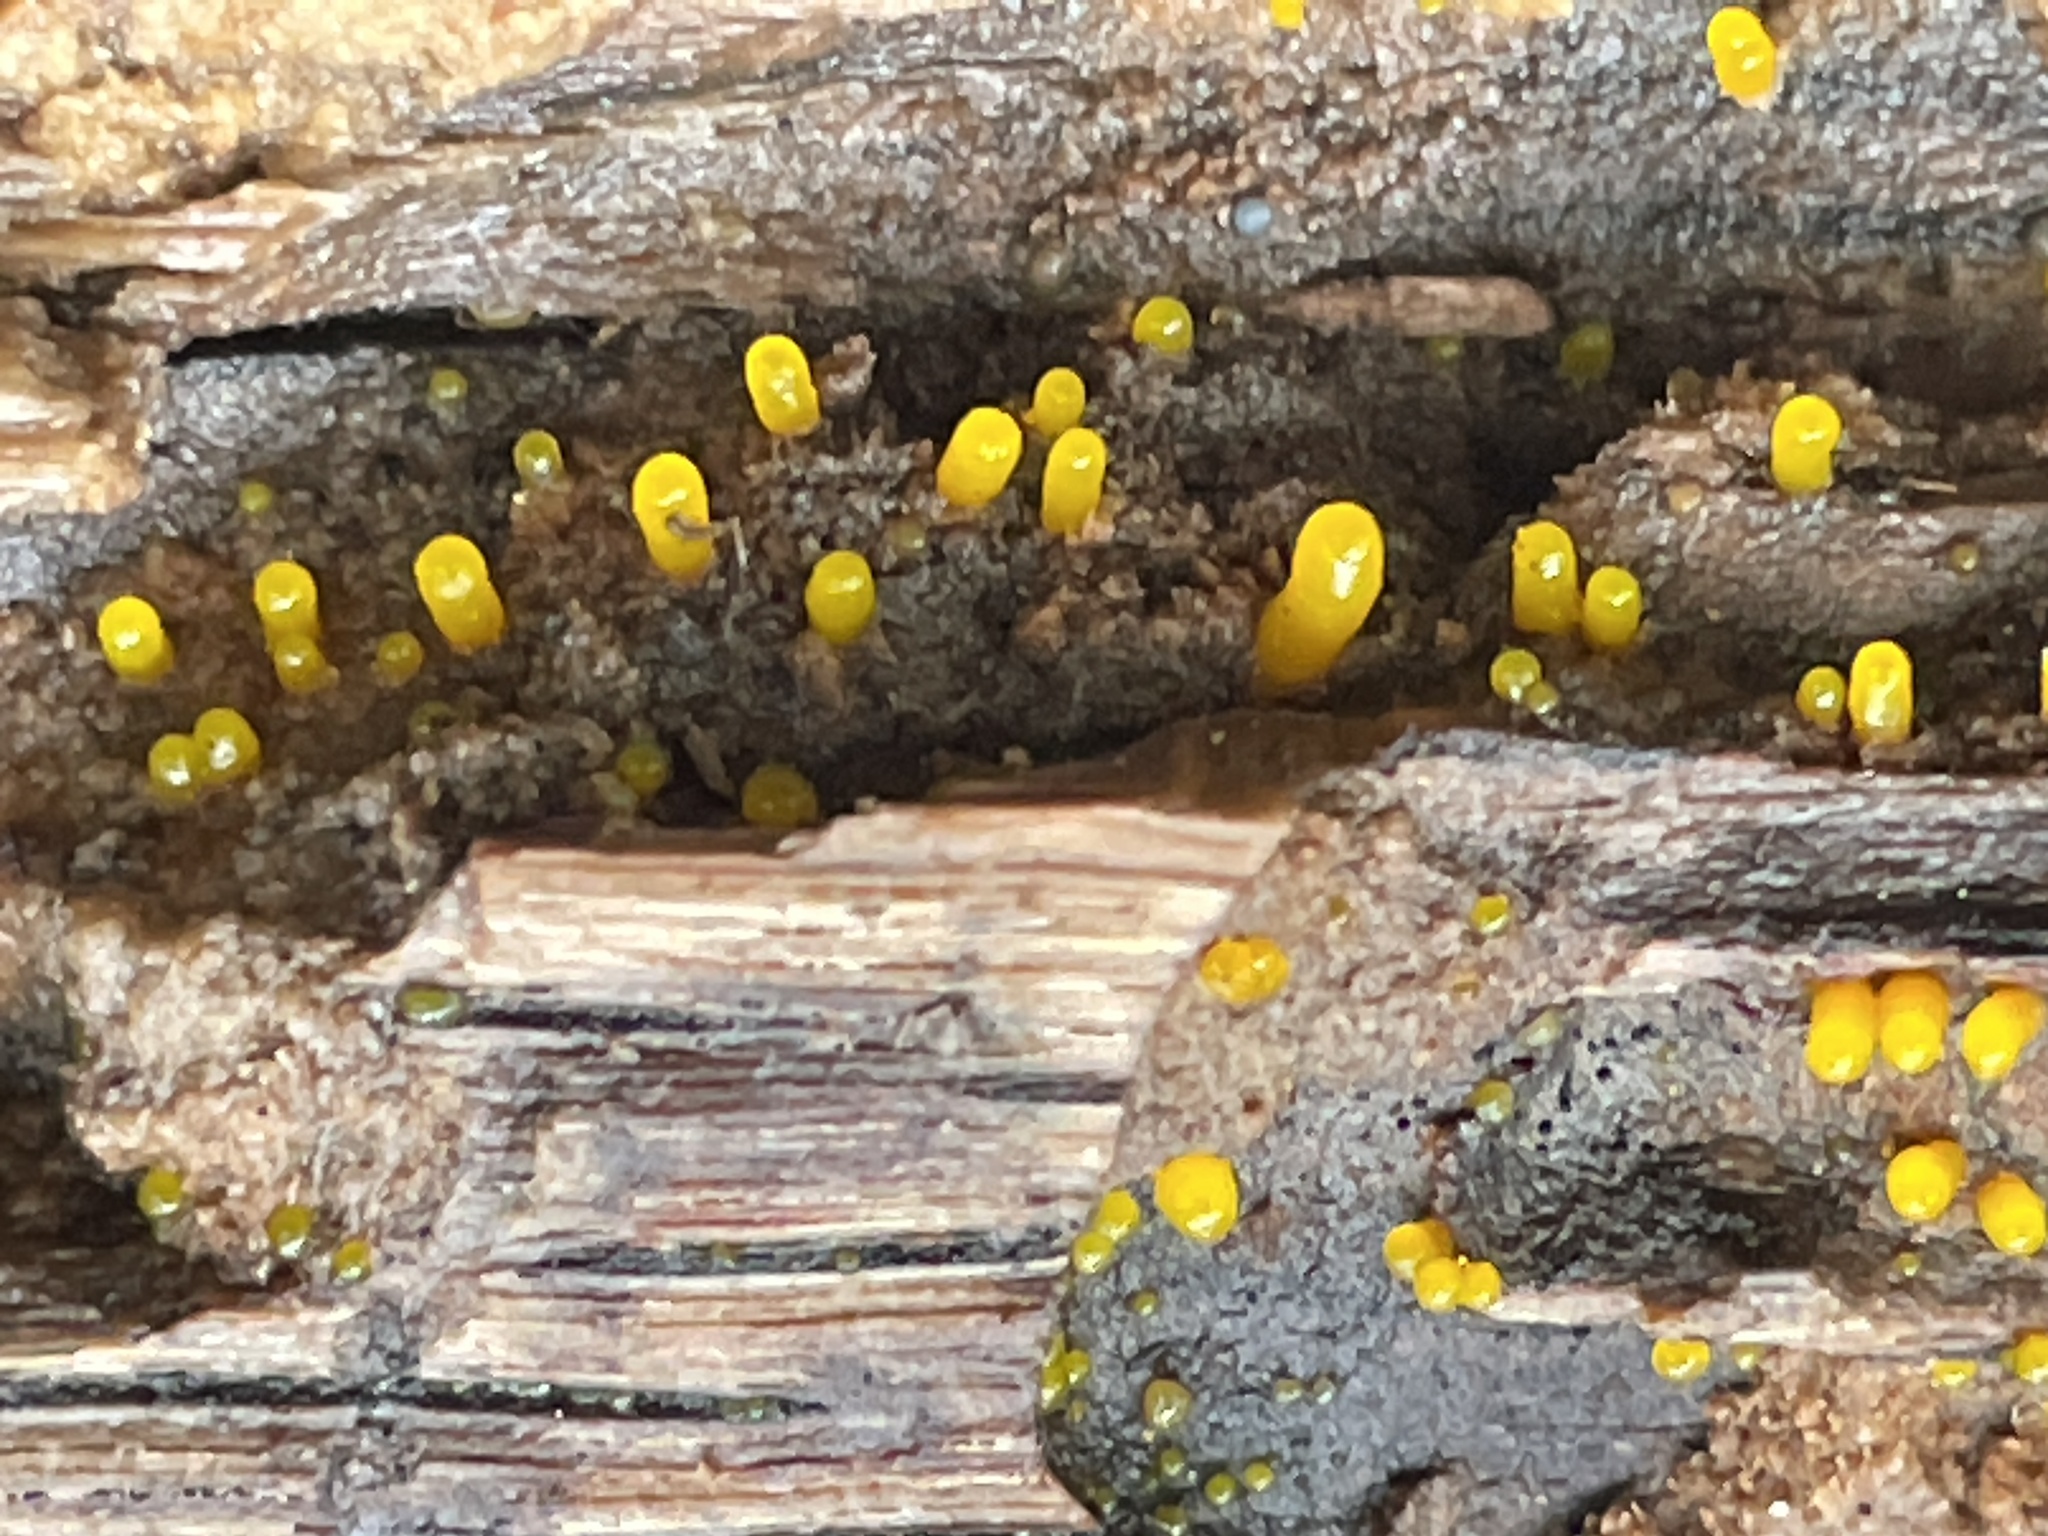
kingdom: Fungi
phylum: Basidiomycota
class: Dacrymycetes
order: Dacrymycetales
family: Dacrymycetaceae
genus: Dacrymyces
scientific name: Dacrymyces capitatus
